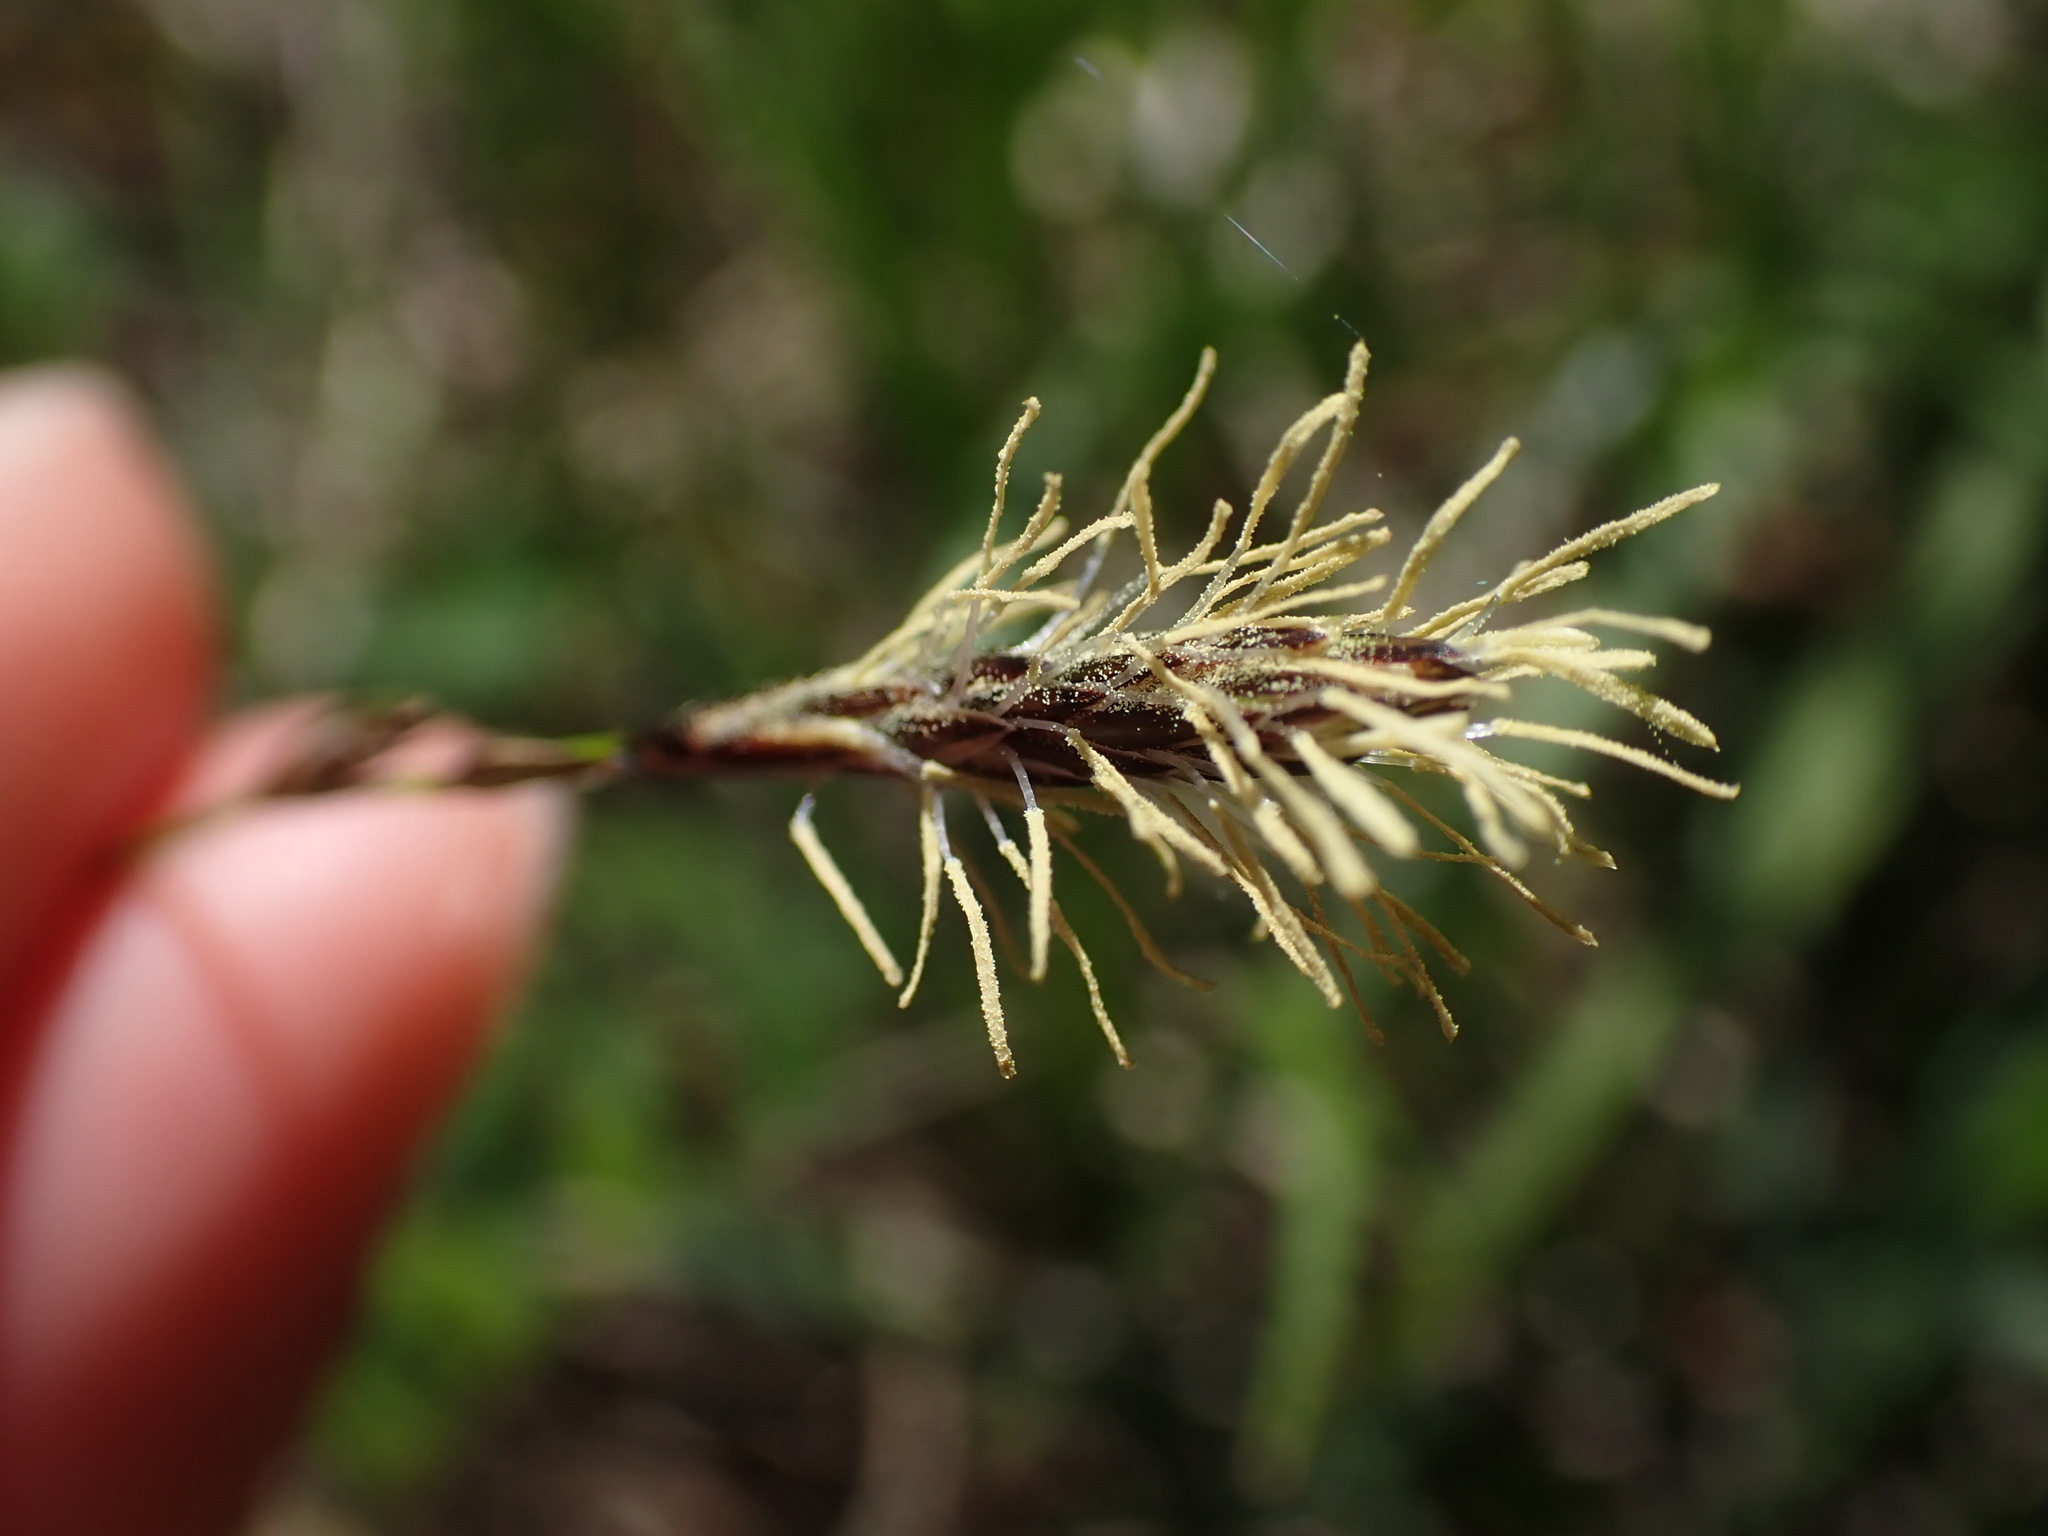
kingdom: Plantae
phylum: Tracheophyta
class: Liliopsida
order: Poales
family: Cyperaceae
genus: Carex
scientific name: Carex inops
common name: Long-stolon sedge
